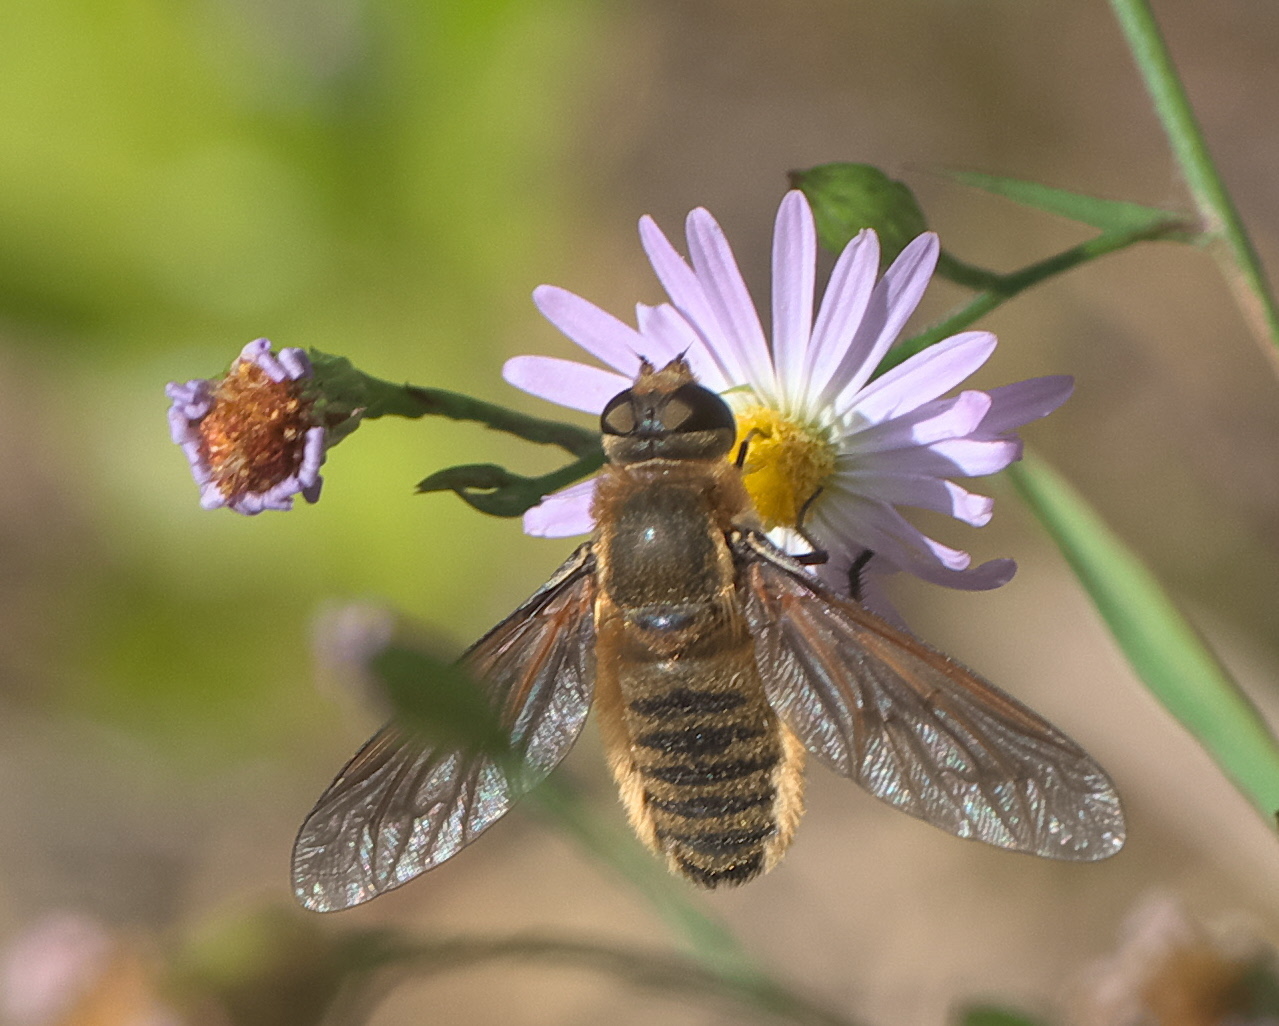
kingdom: Animalia
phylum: Arthropoda
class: Insecta
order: Diptera
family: Bombyliidae
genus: Poecilanthrax
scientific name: Poecilanthrax lucifer
